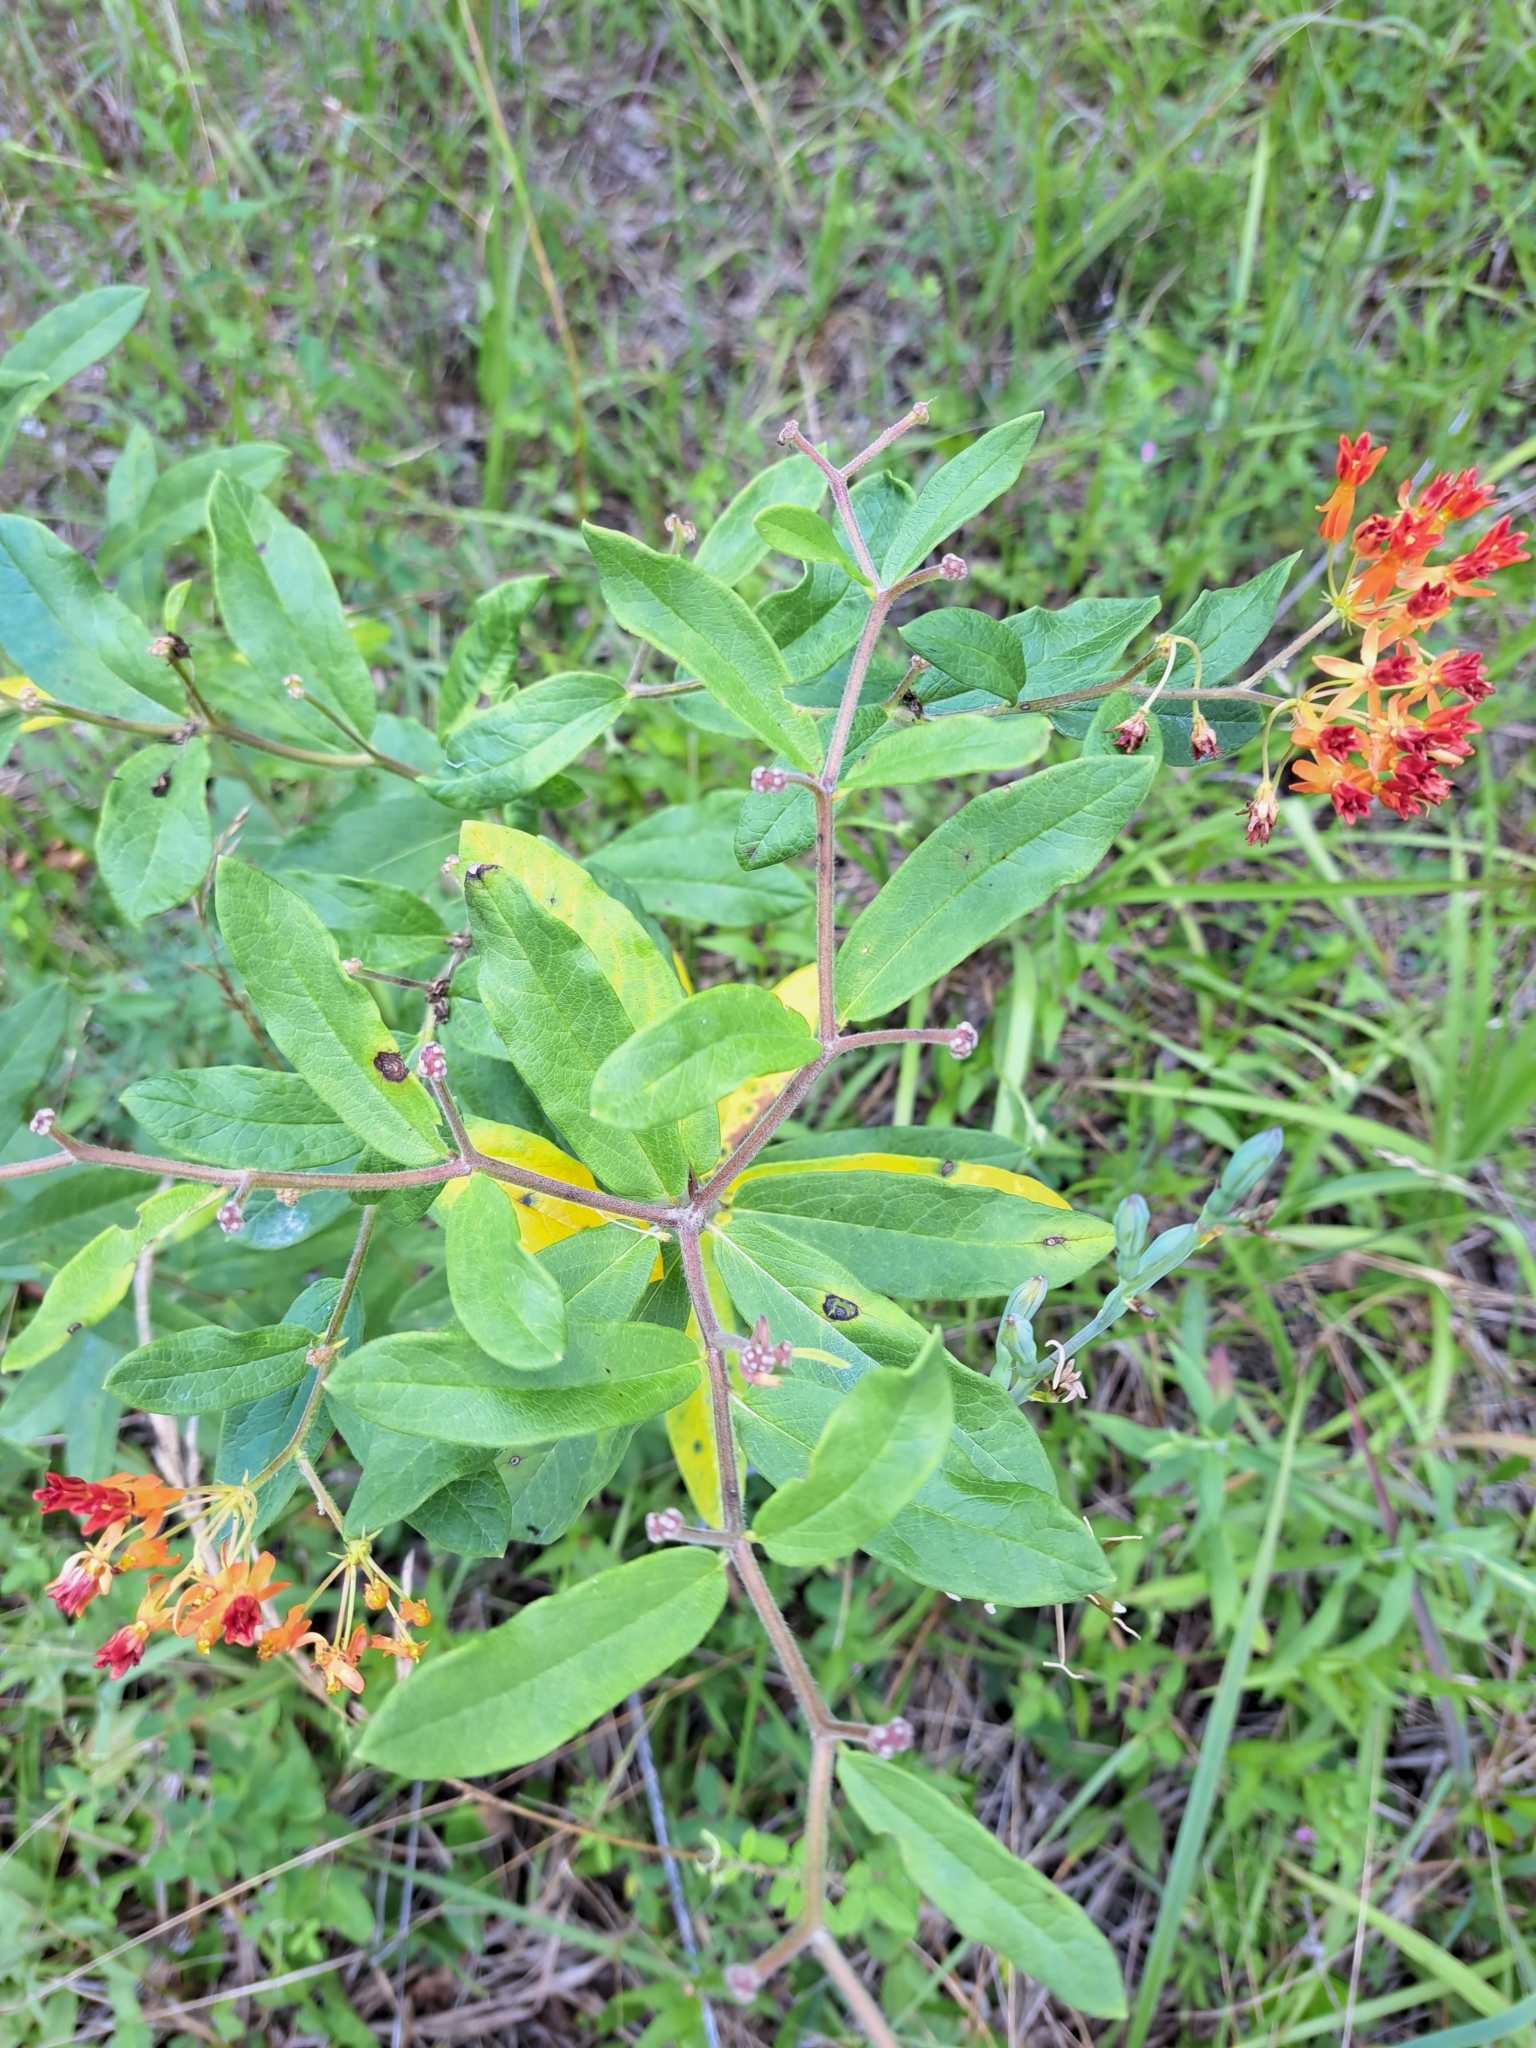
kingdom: Plantae
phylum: Tracheophyta
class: Magnoliopsida
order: Gentianales
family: Apocynaceae
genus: Asclepias
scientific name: Asclepias tuberosa
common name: Butterfly milkweed
